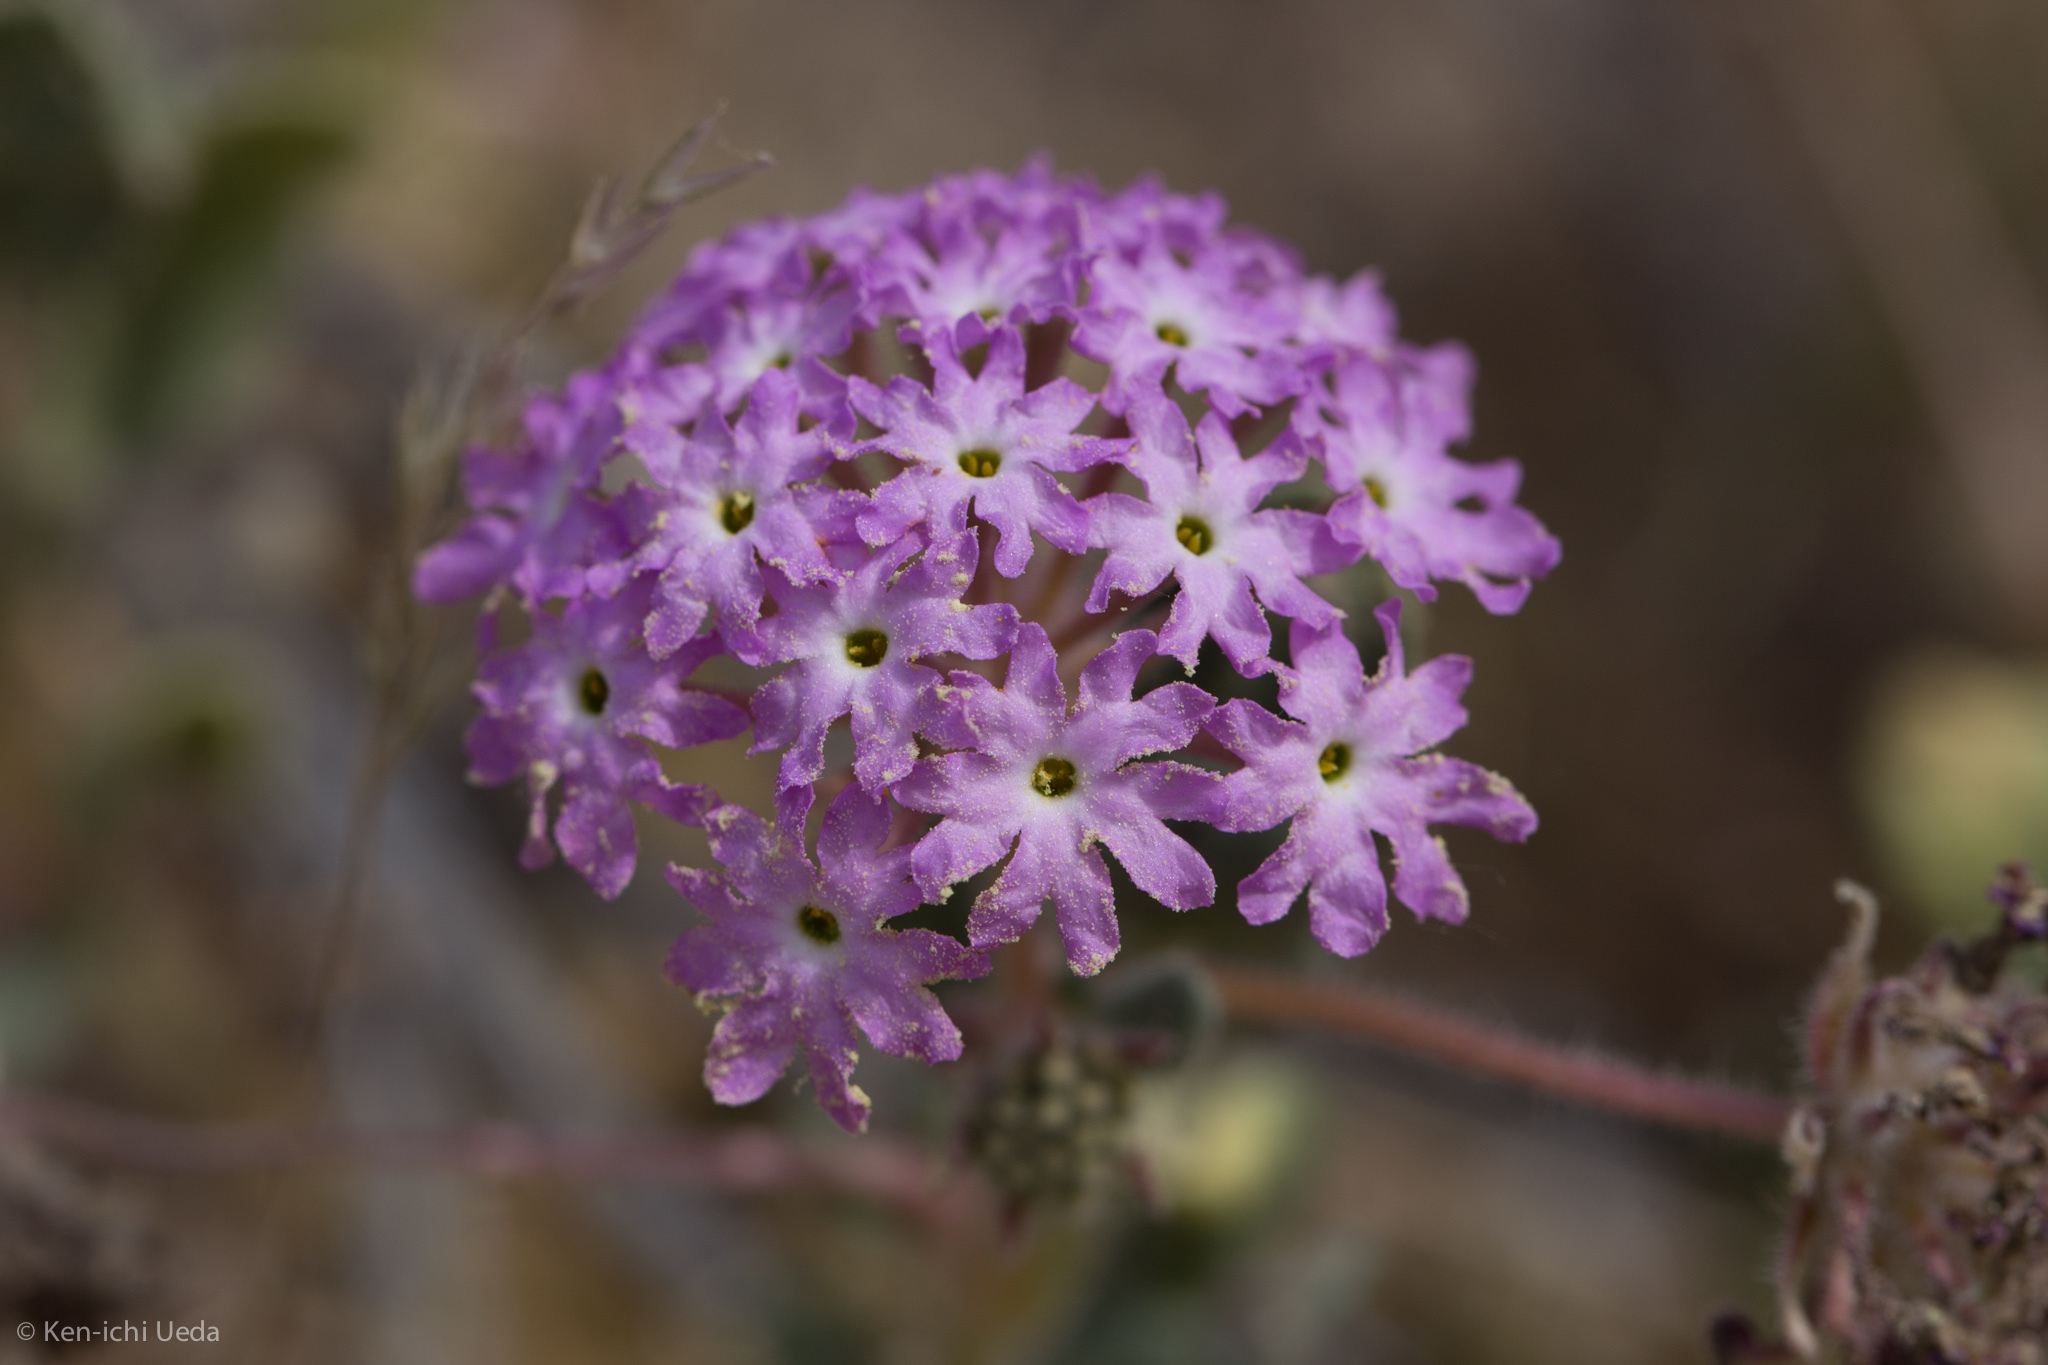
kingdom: Plantae
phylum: Tracheophyta
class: Magnoliopsida
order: Caryophyllales
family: Nyctaginaceae
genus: Abronia
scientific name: Abronia villosa
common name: Desert sand-verbena
